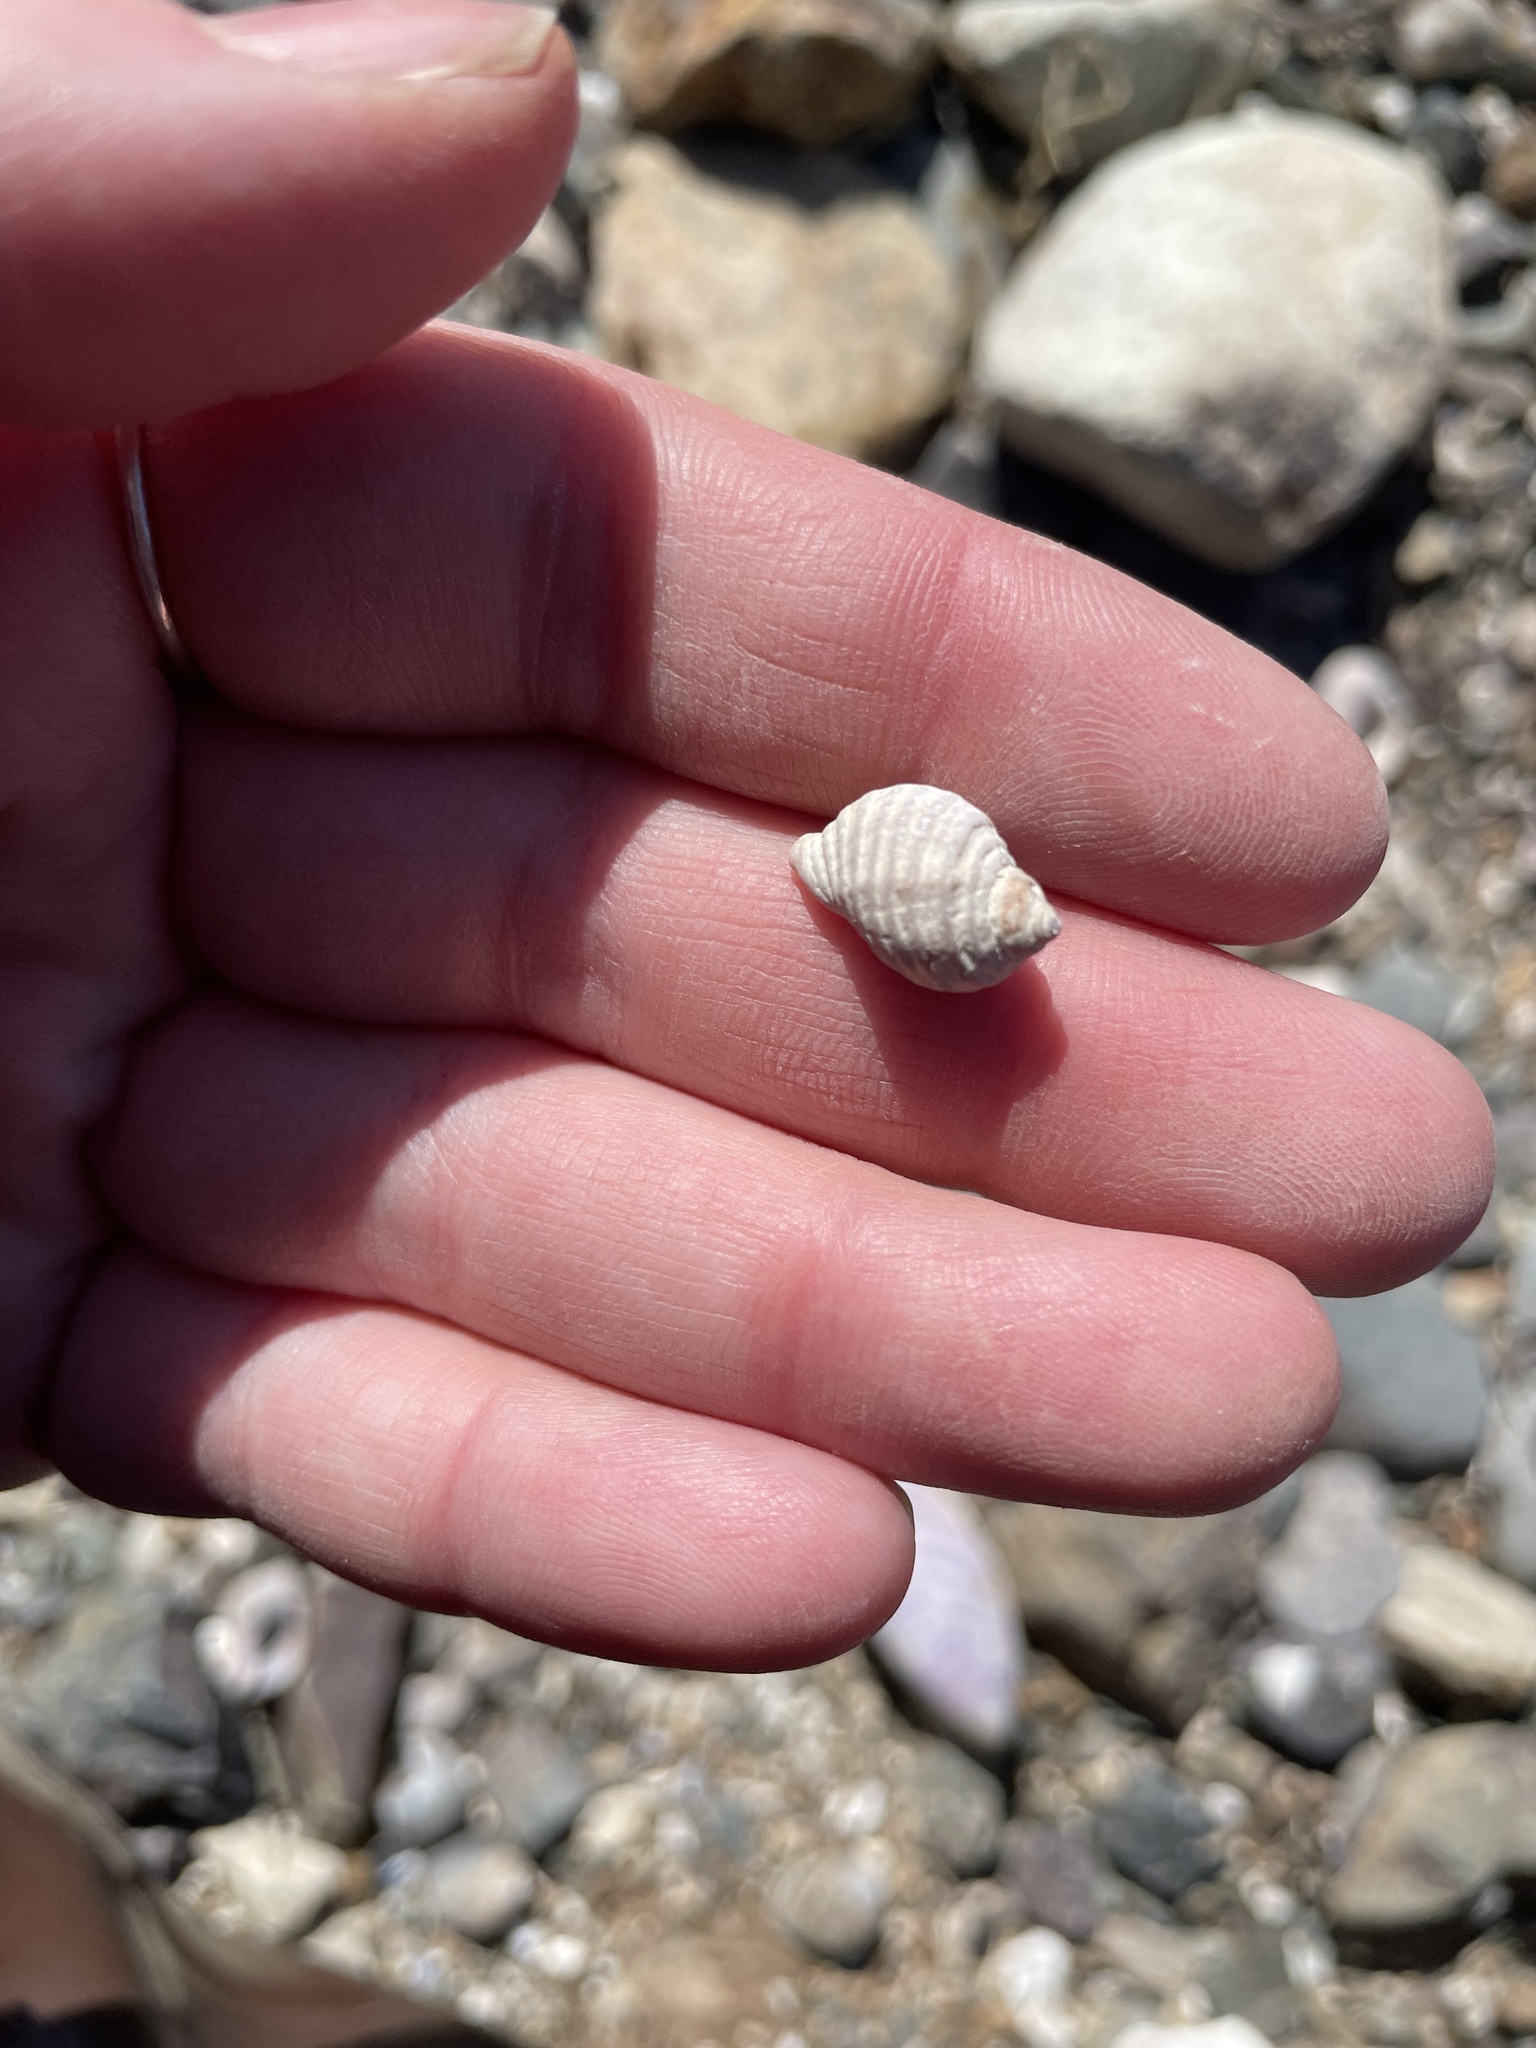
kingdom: Animalia
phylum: Mollusca
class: Gastropoda
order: Neogastropoda
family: Muricidae
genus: Nucella
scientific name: Nucella lapillus
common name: Dog whelk
